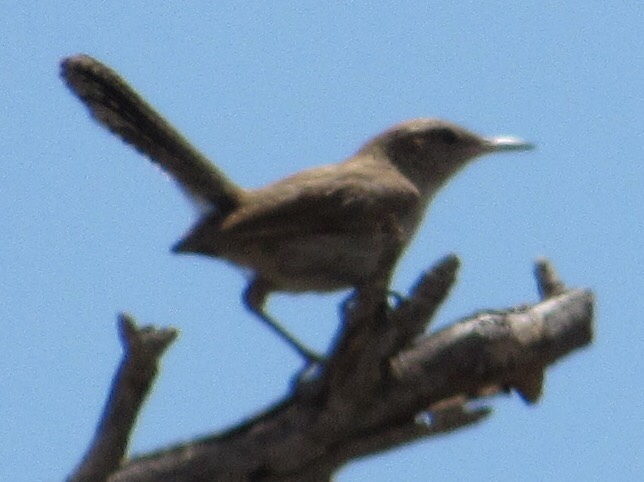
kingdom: Animalia
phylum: Chordata
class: Aves
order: Passeriformes
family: Troglodytidae
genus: Troglodytes
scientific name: Troglodytes aedon
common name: House wren
